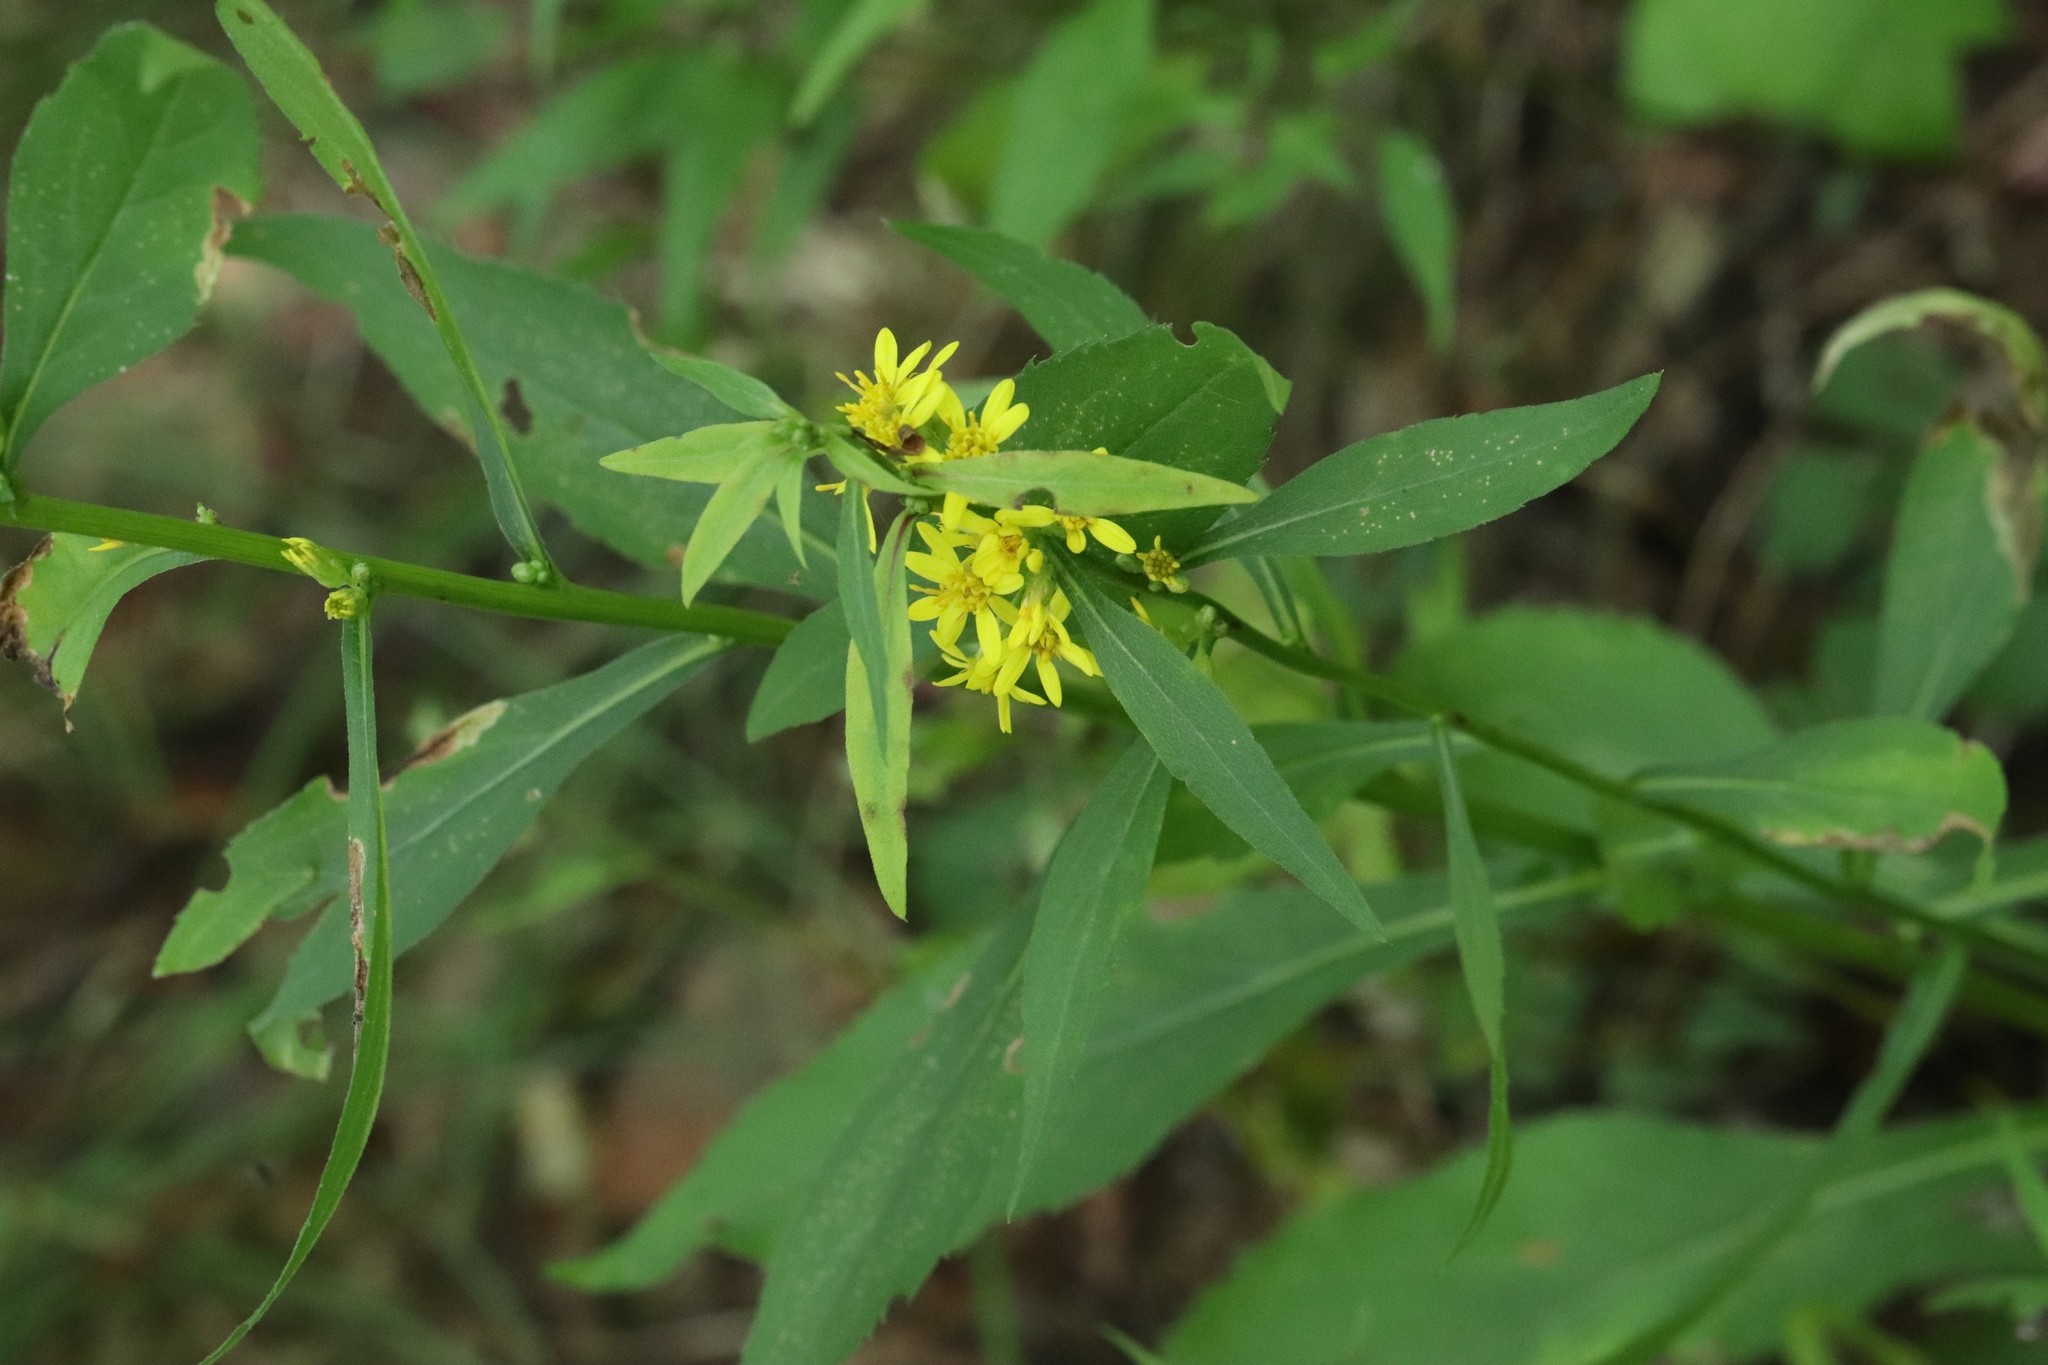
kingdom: Plantae
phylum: Tracheophyta
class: Magnoliopsida
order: Asterales
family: Asteraceae
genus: Solidago
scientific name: Solidago decurrens
